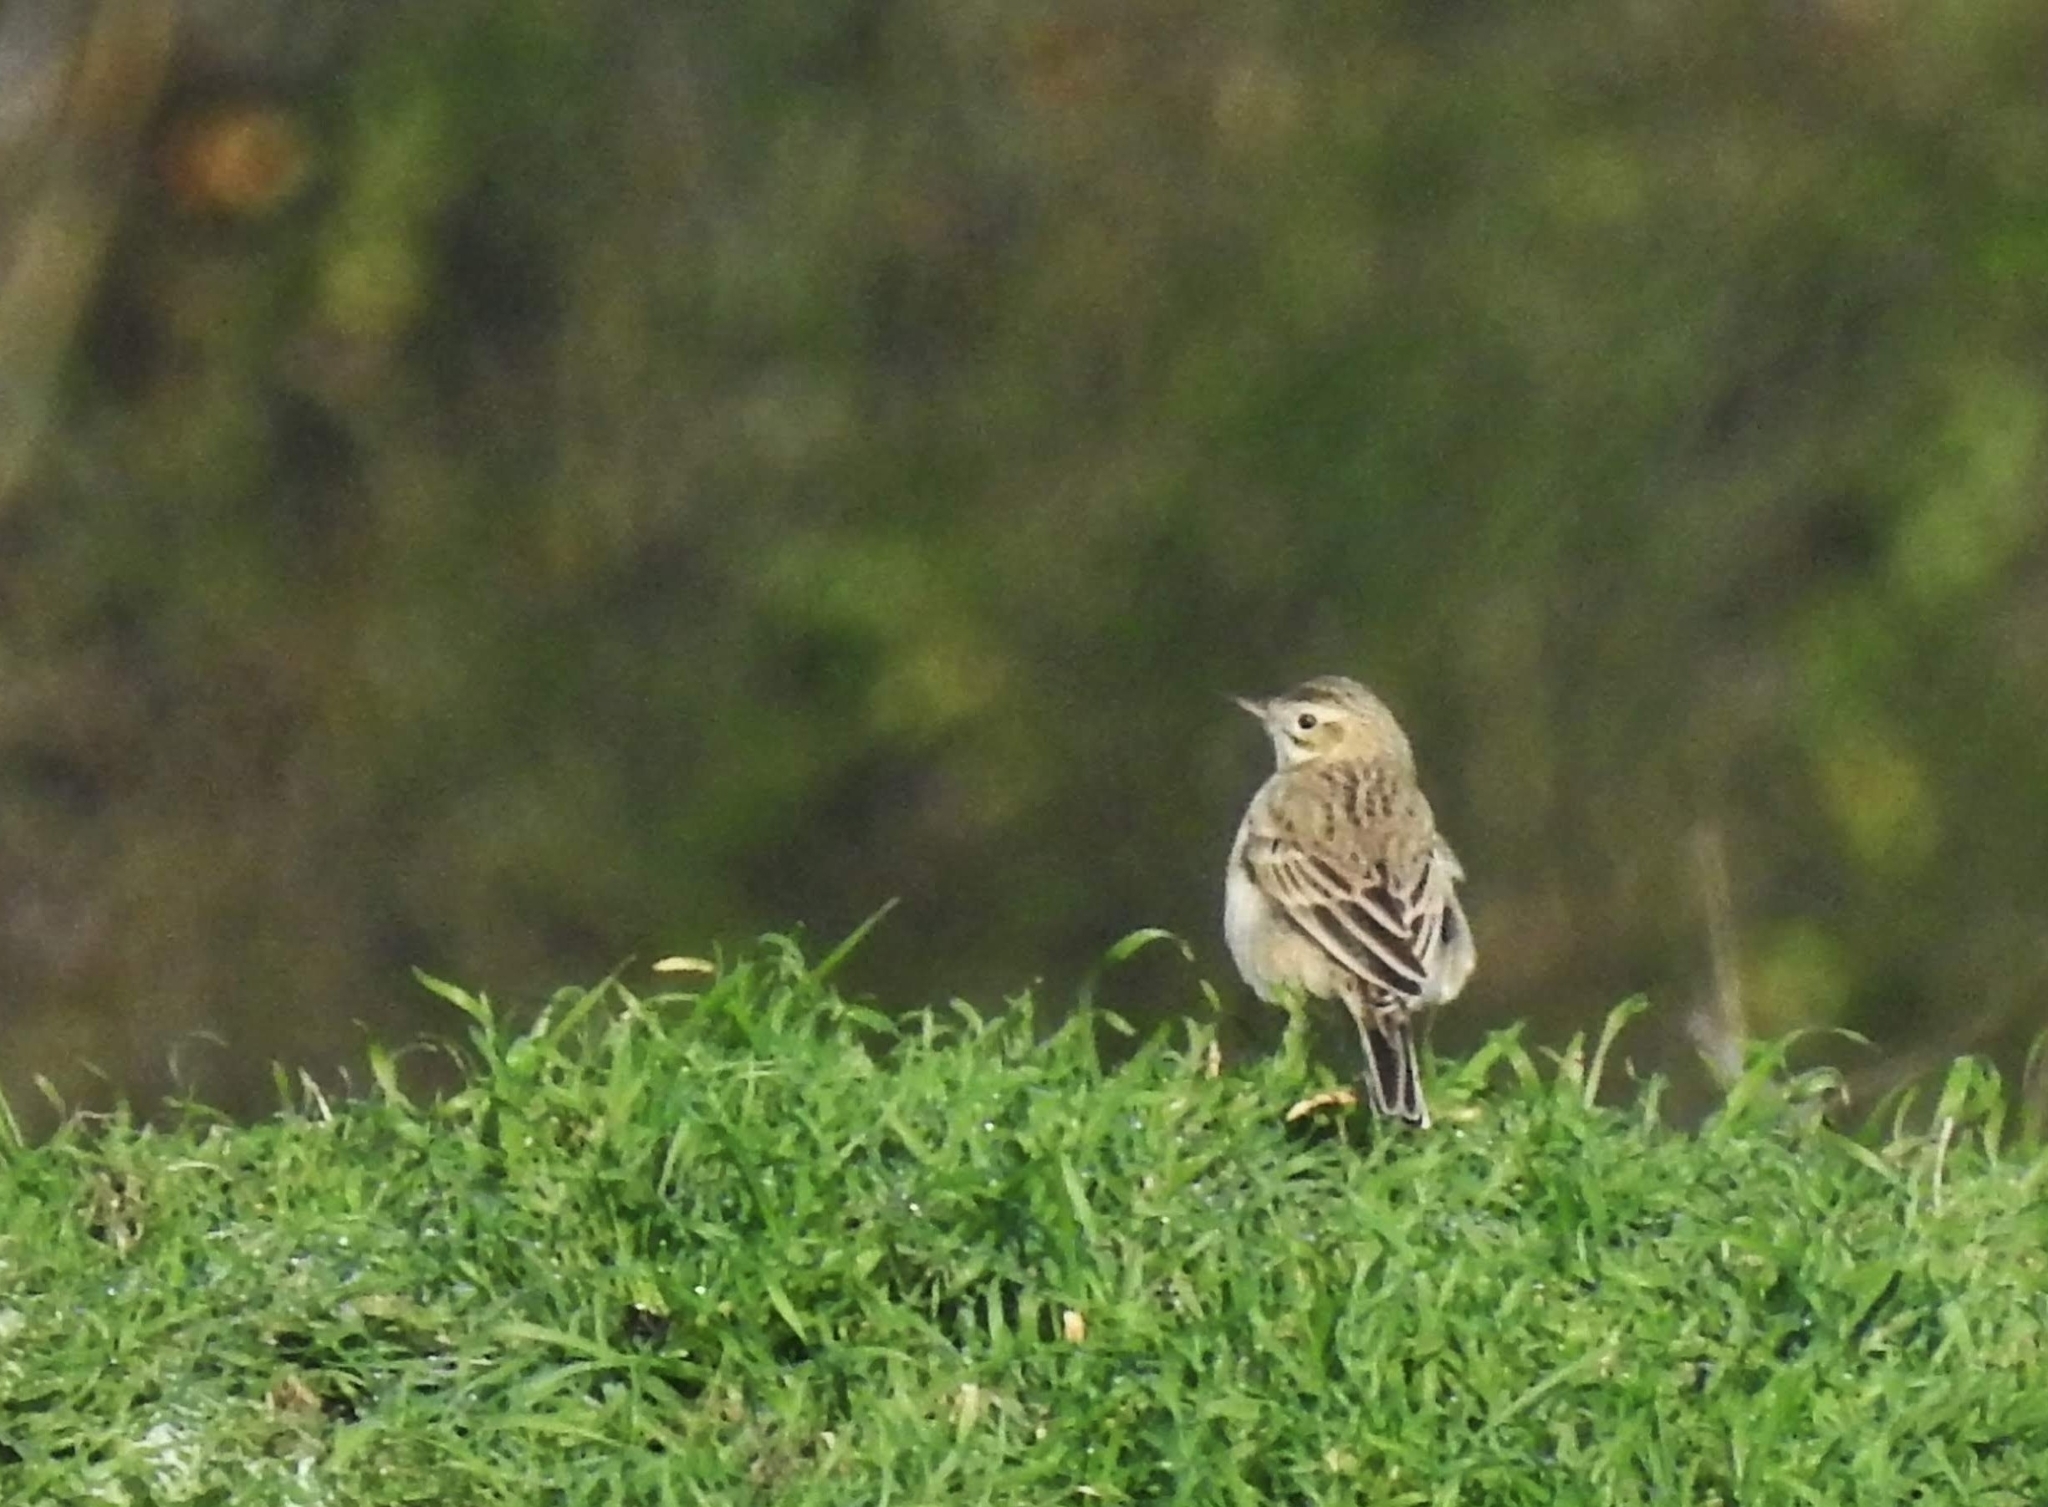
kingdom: Animalia
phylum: Chordata
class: Aves
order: Passeriformes
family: Motacillidae
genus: Anthus
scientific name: Anthus richardi
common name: Richard's pipit
